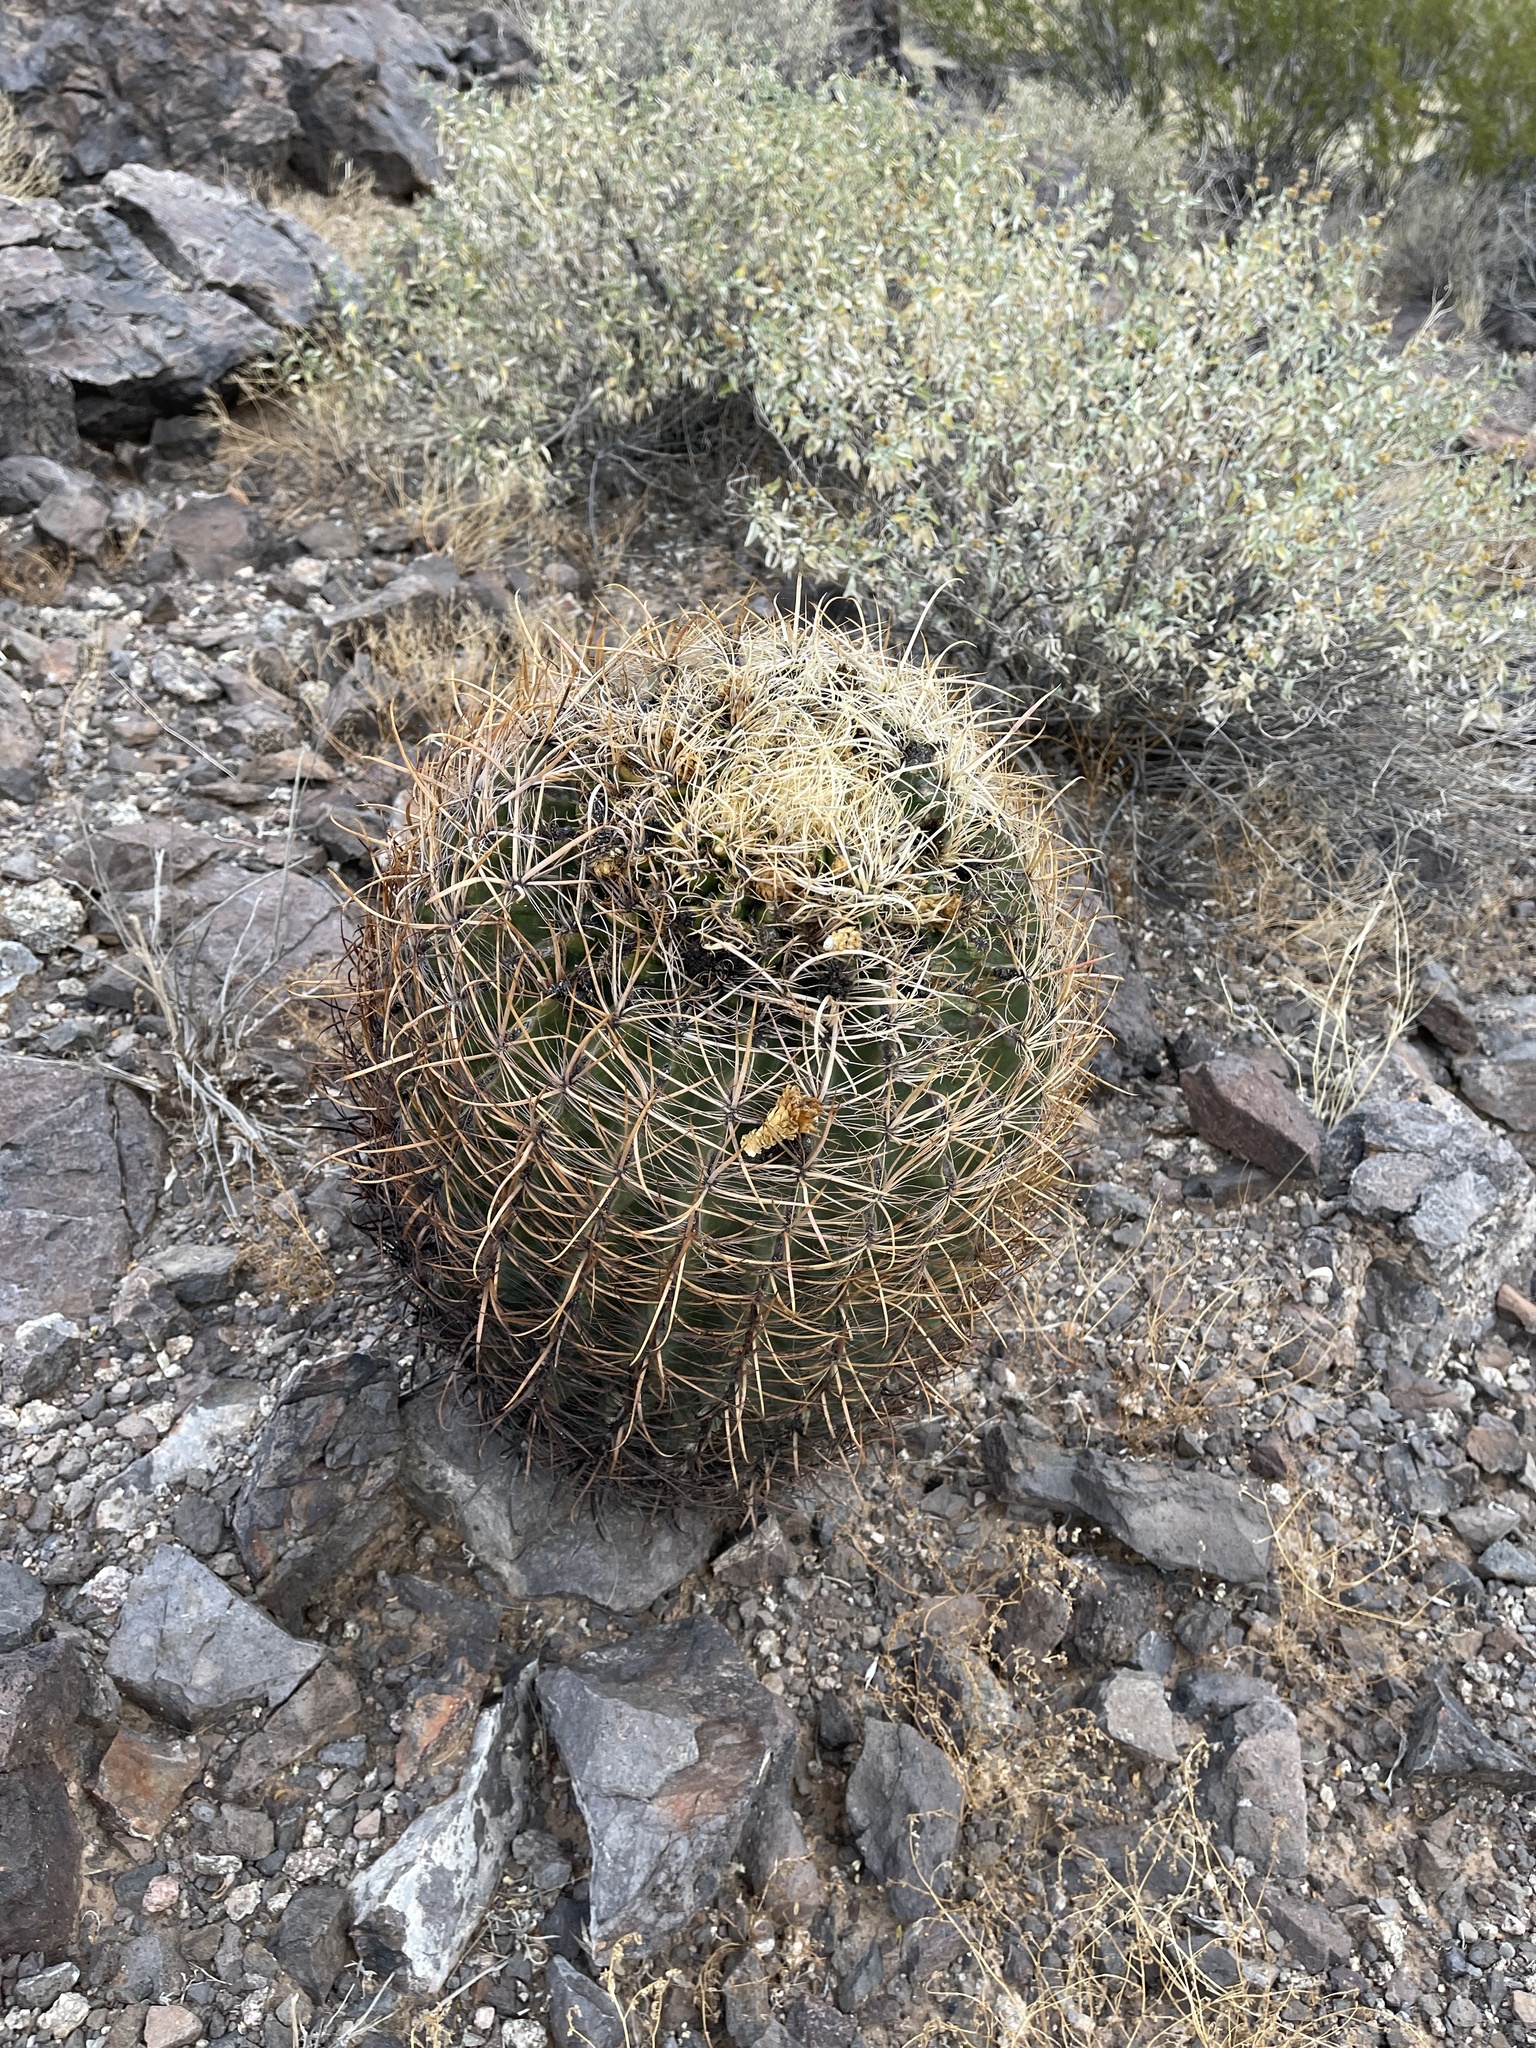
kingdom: Plantae
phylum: Tracheophyta
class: Magnoliopsida
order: Caryophyllales
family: Cactaceae
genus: Ferocactus
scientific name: Ferocactus cylindraceus
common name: California barrel cactus
